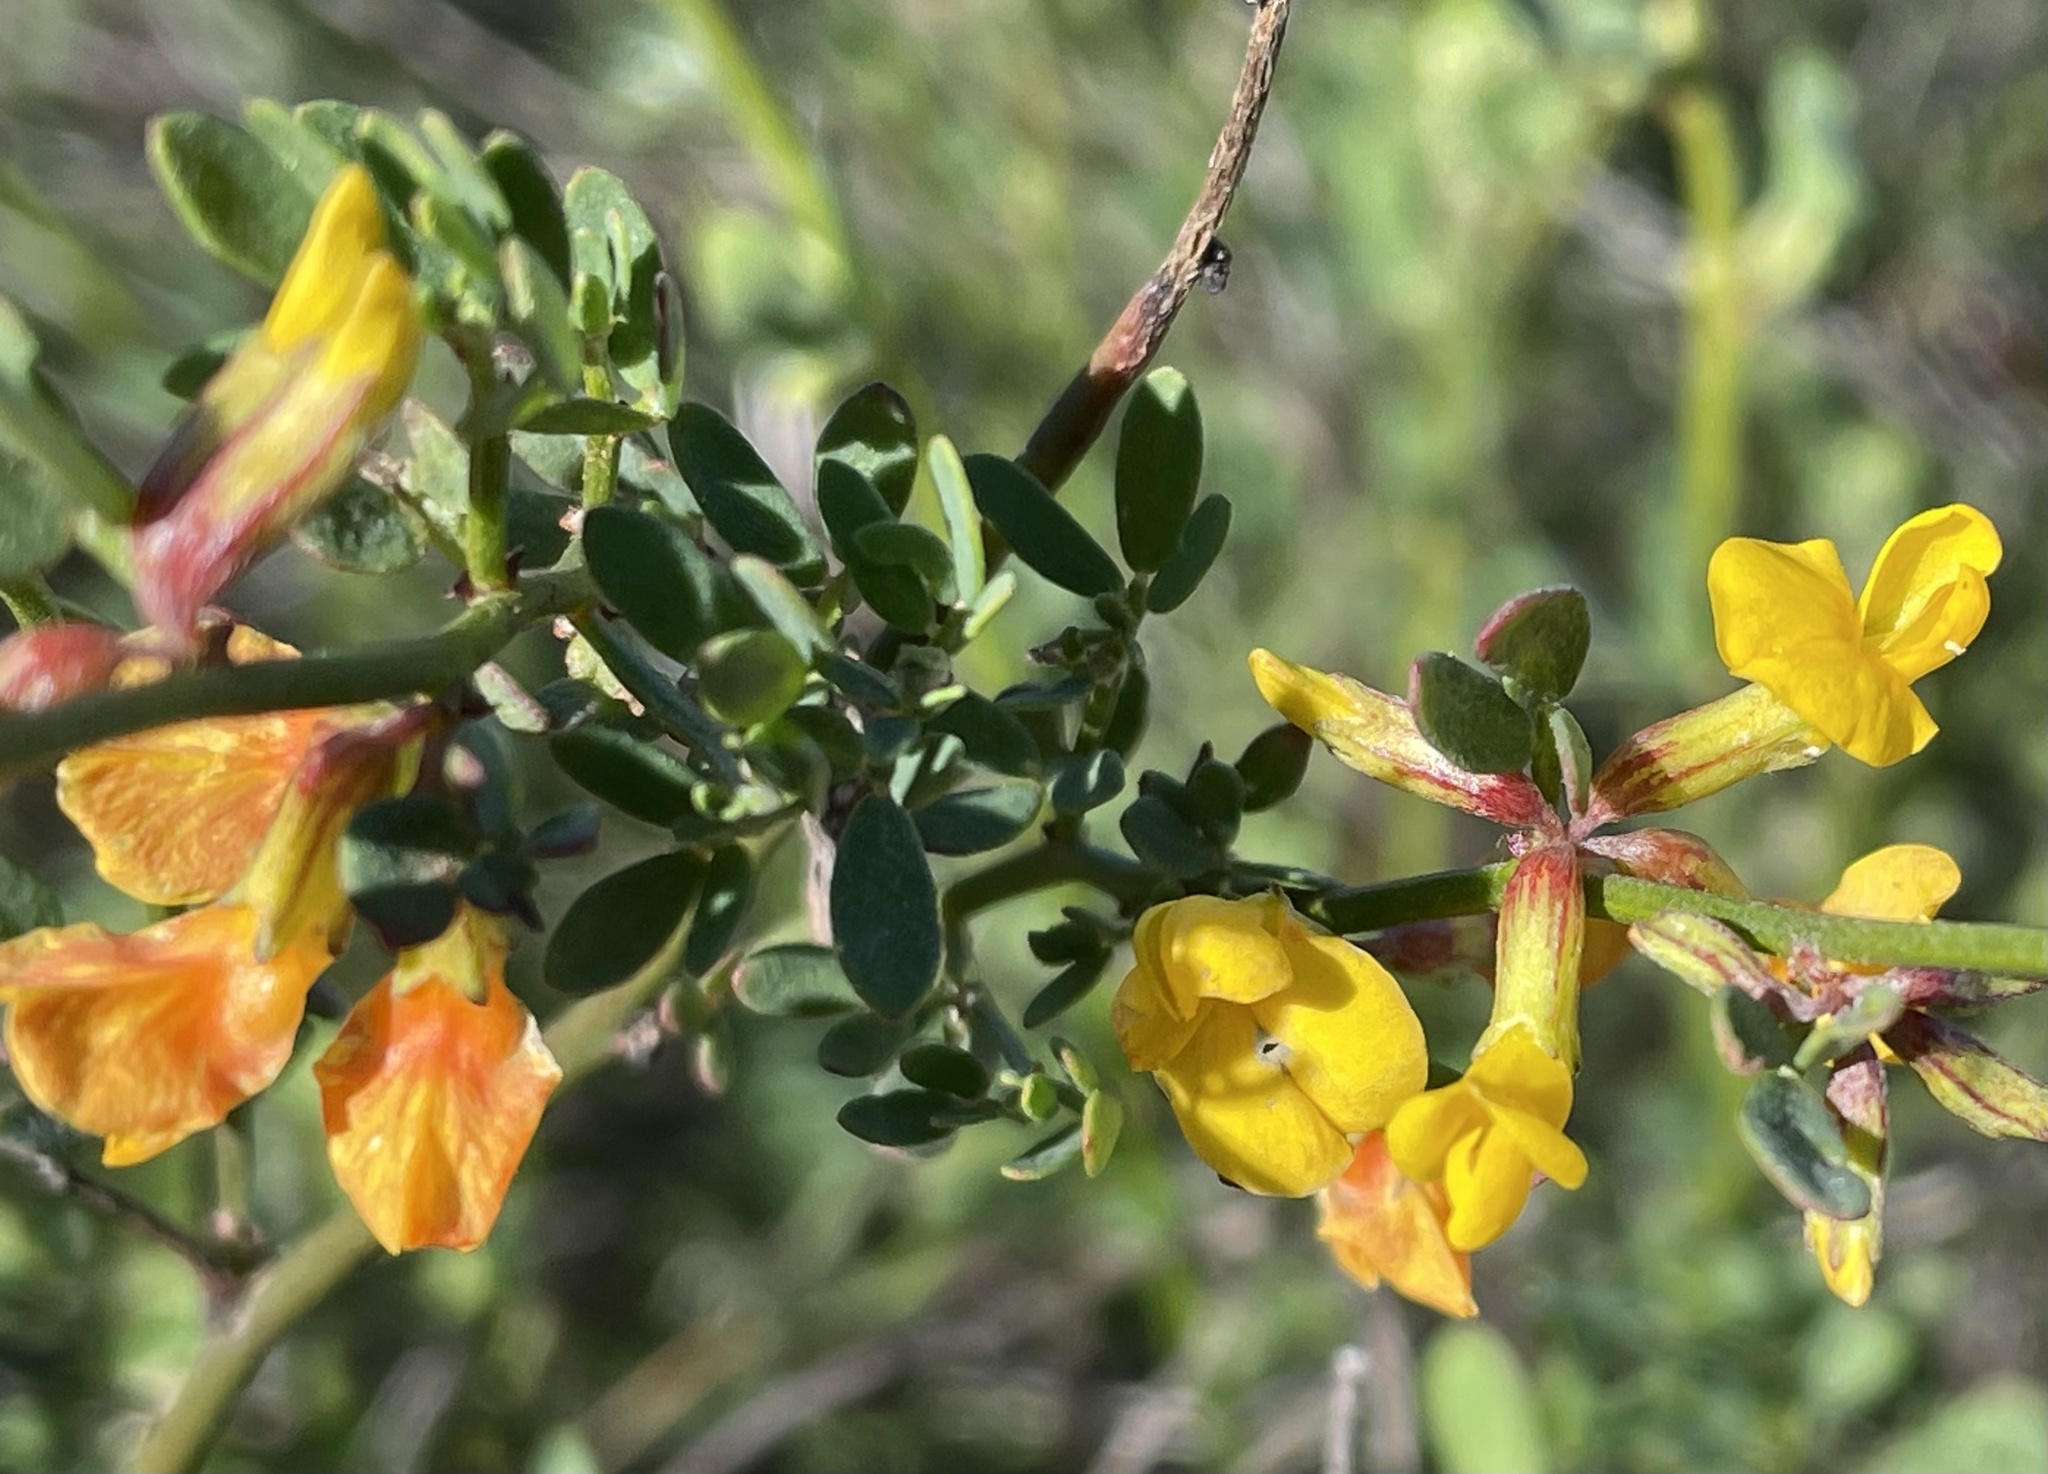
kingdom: Plantae
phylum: Tracheophyta
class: Magnoliopsida
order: Fabales
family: Fabaceae
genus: Acmispon
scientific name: Acmispon glaber
